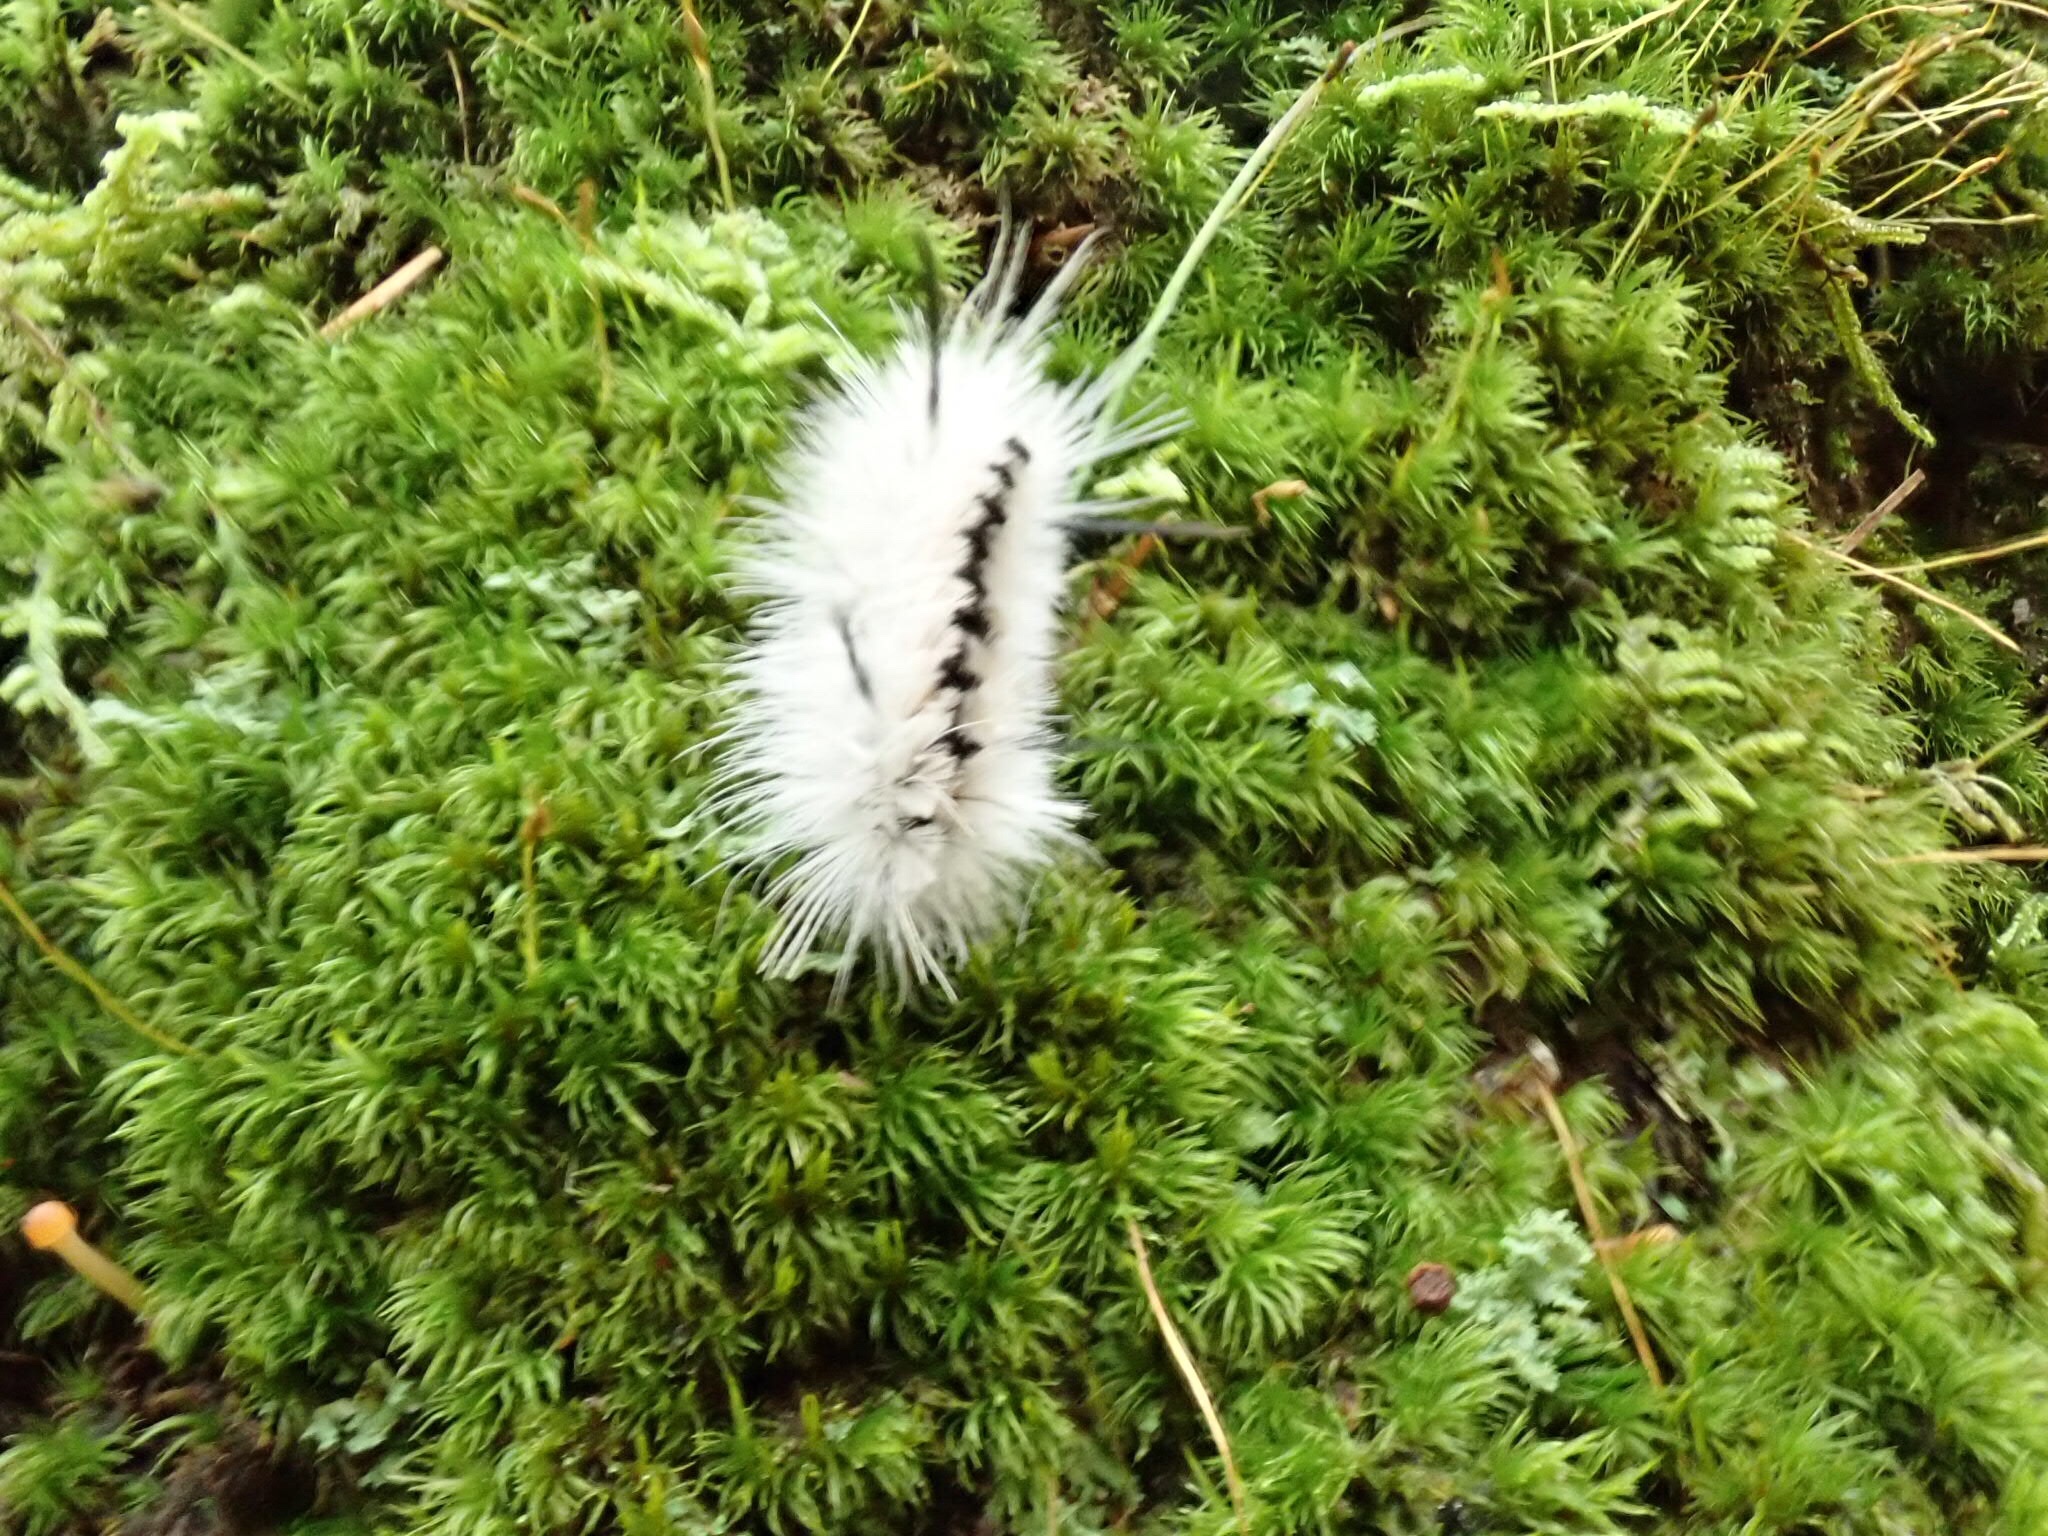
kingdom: Animalia
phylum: Arthropoda
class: Insecta
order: Lepidoptera
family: Erebidae
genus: Lophocampa
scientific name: Lophocampa caryae
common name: Hickory tussock moth
